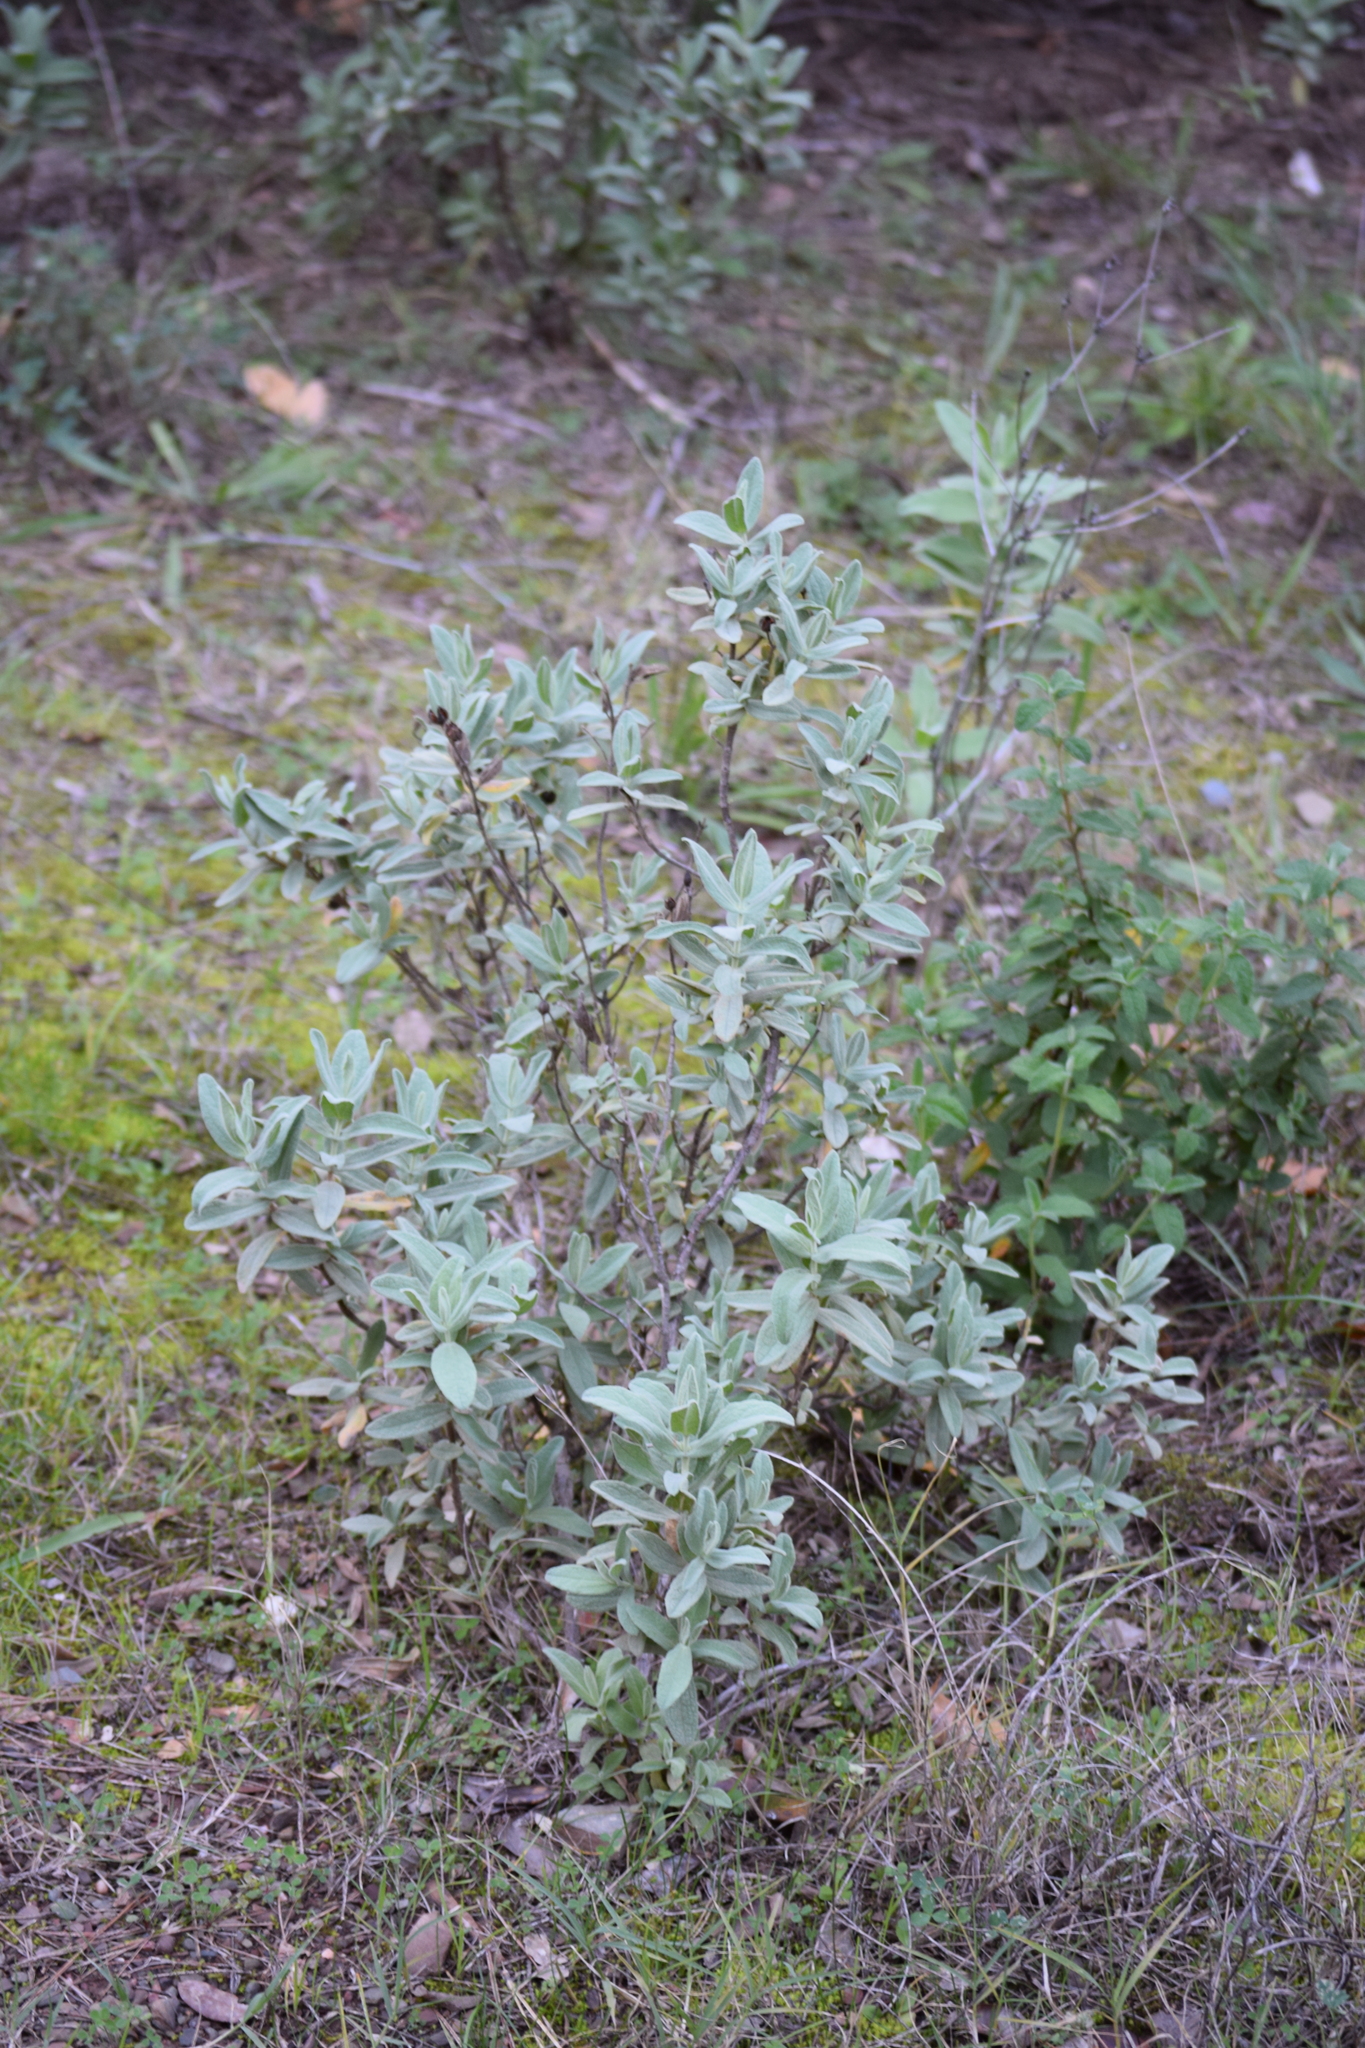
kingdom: Plantae
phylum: Tracheophyta
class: Magnoliopsida
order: Malvales
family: Cistaceae
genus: Cistus
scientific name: Cistus albidus
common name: White-leaf rock-rose
